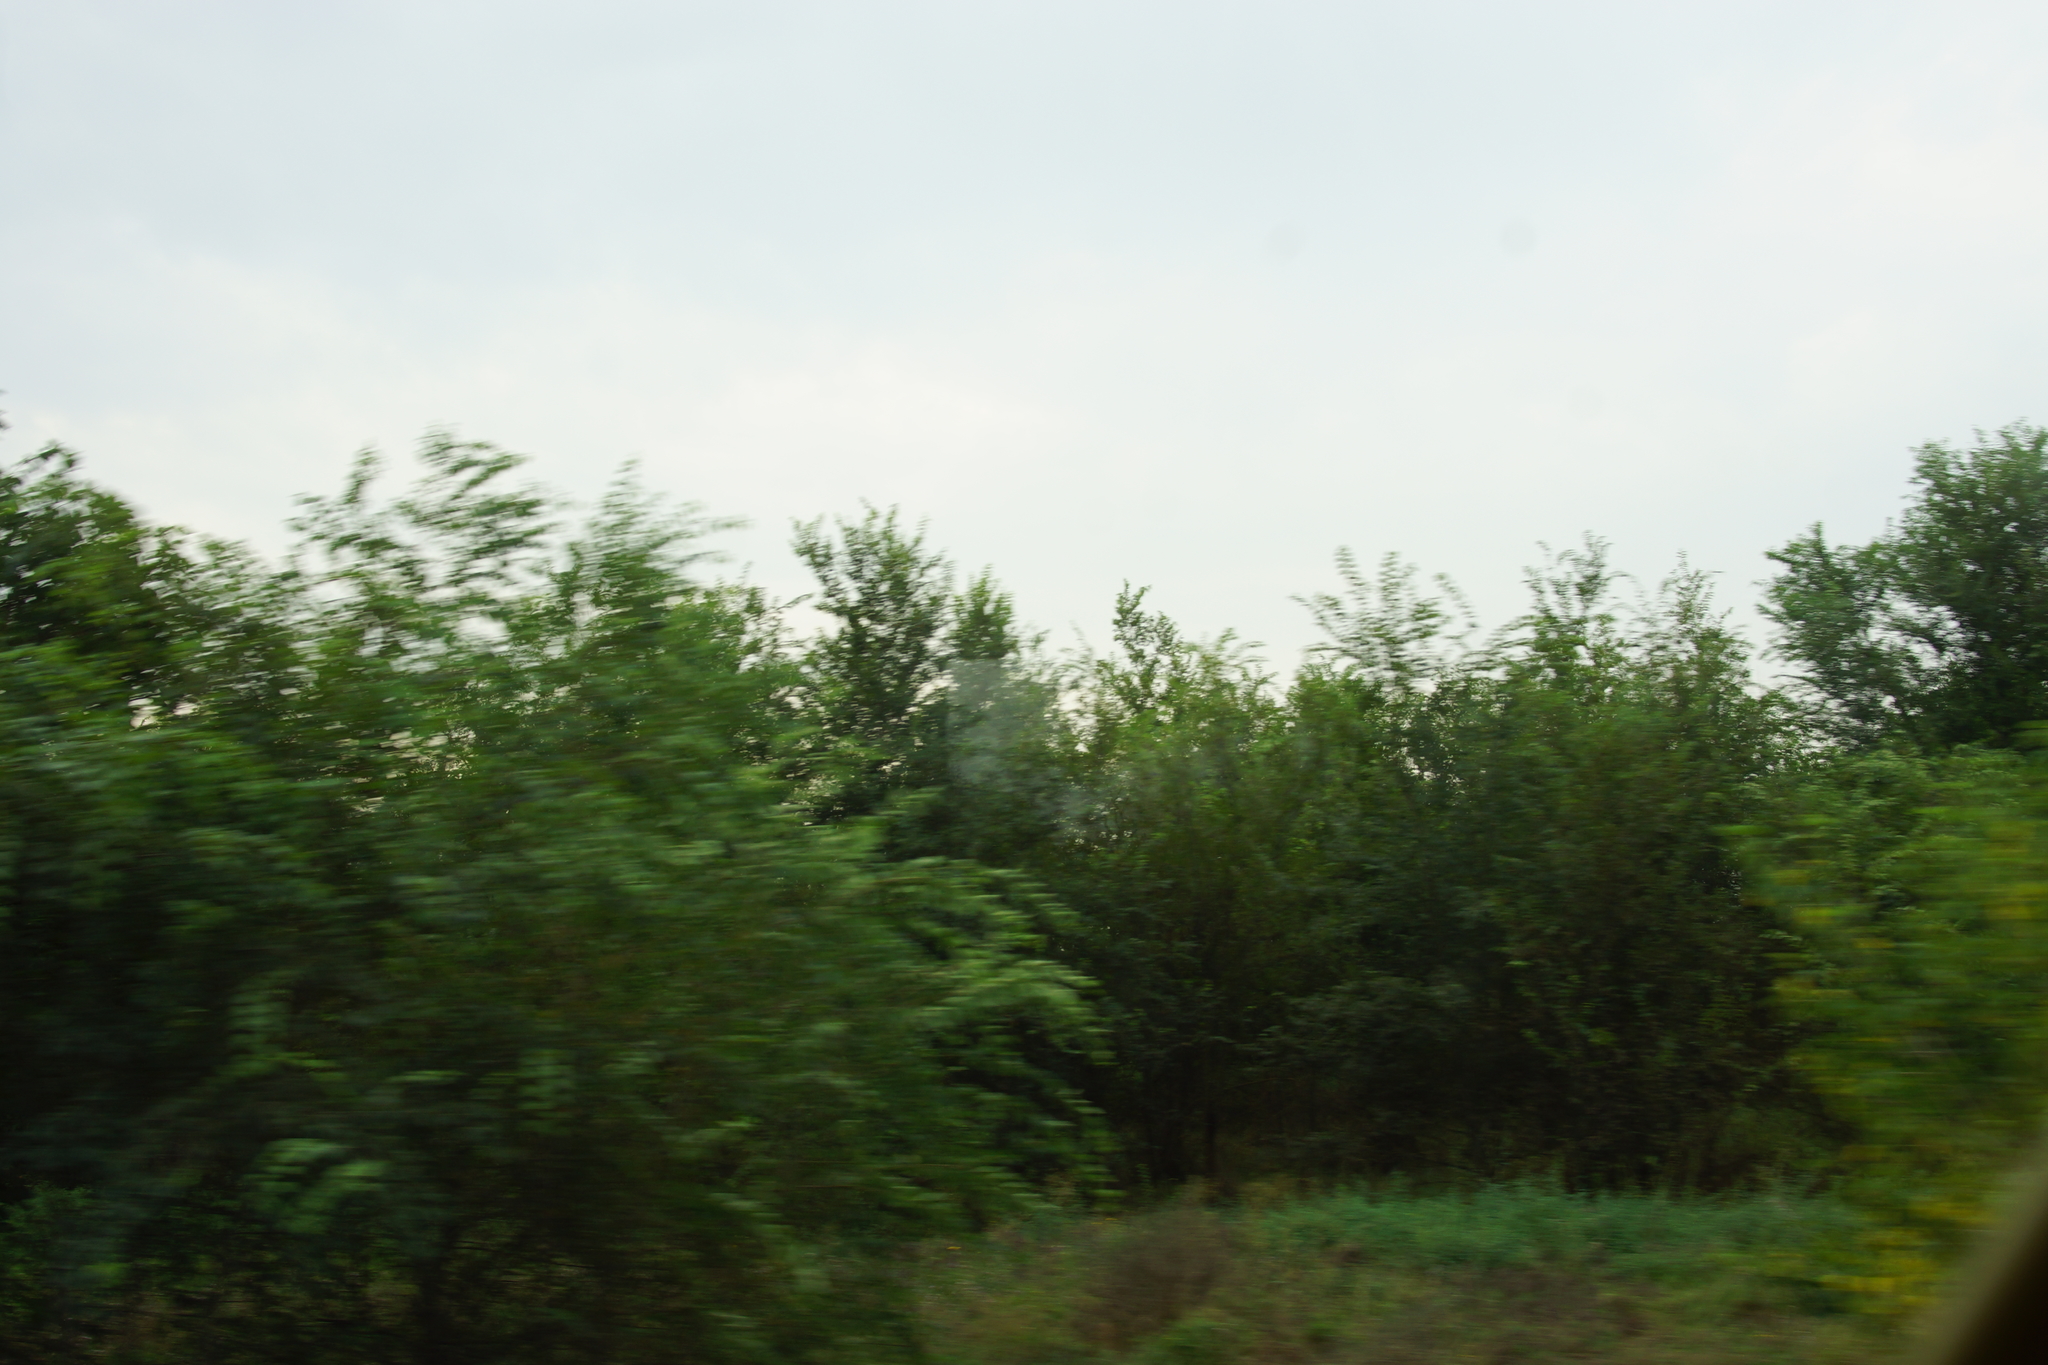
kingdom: Plantae
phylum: Tracheophyta
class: Magnoliopsida
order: Rosales
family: Ulmaceae
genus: Ulmus
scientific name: Ulmus pumila
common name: Siberian elm
